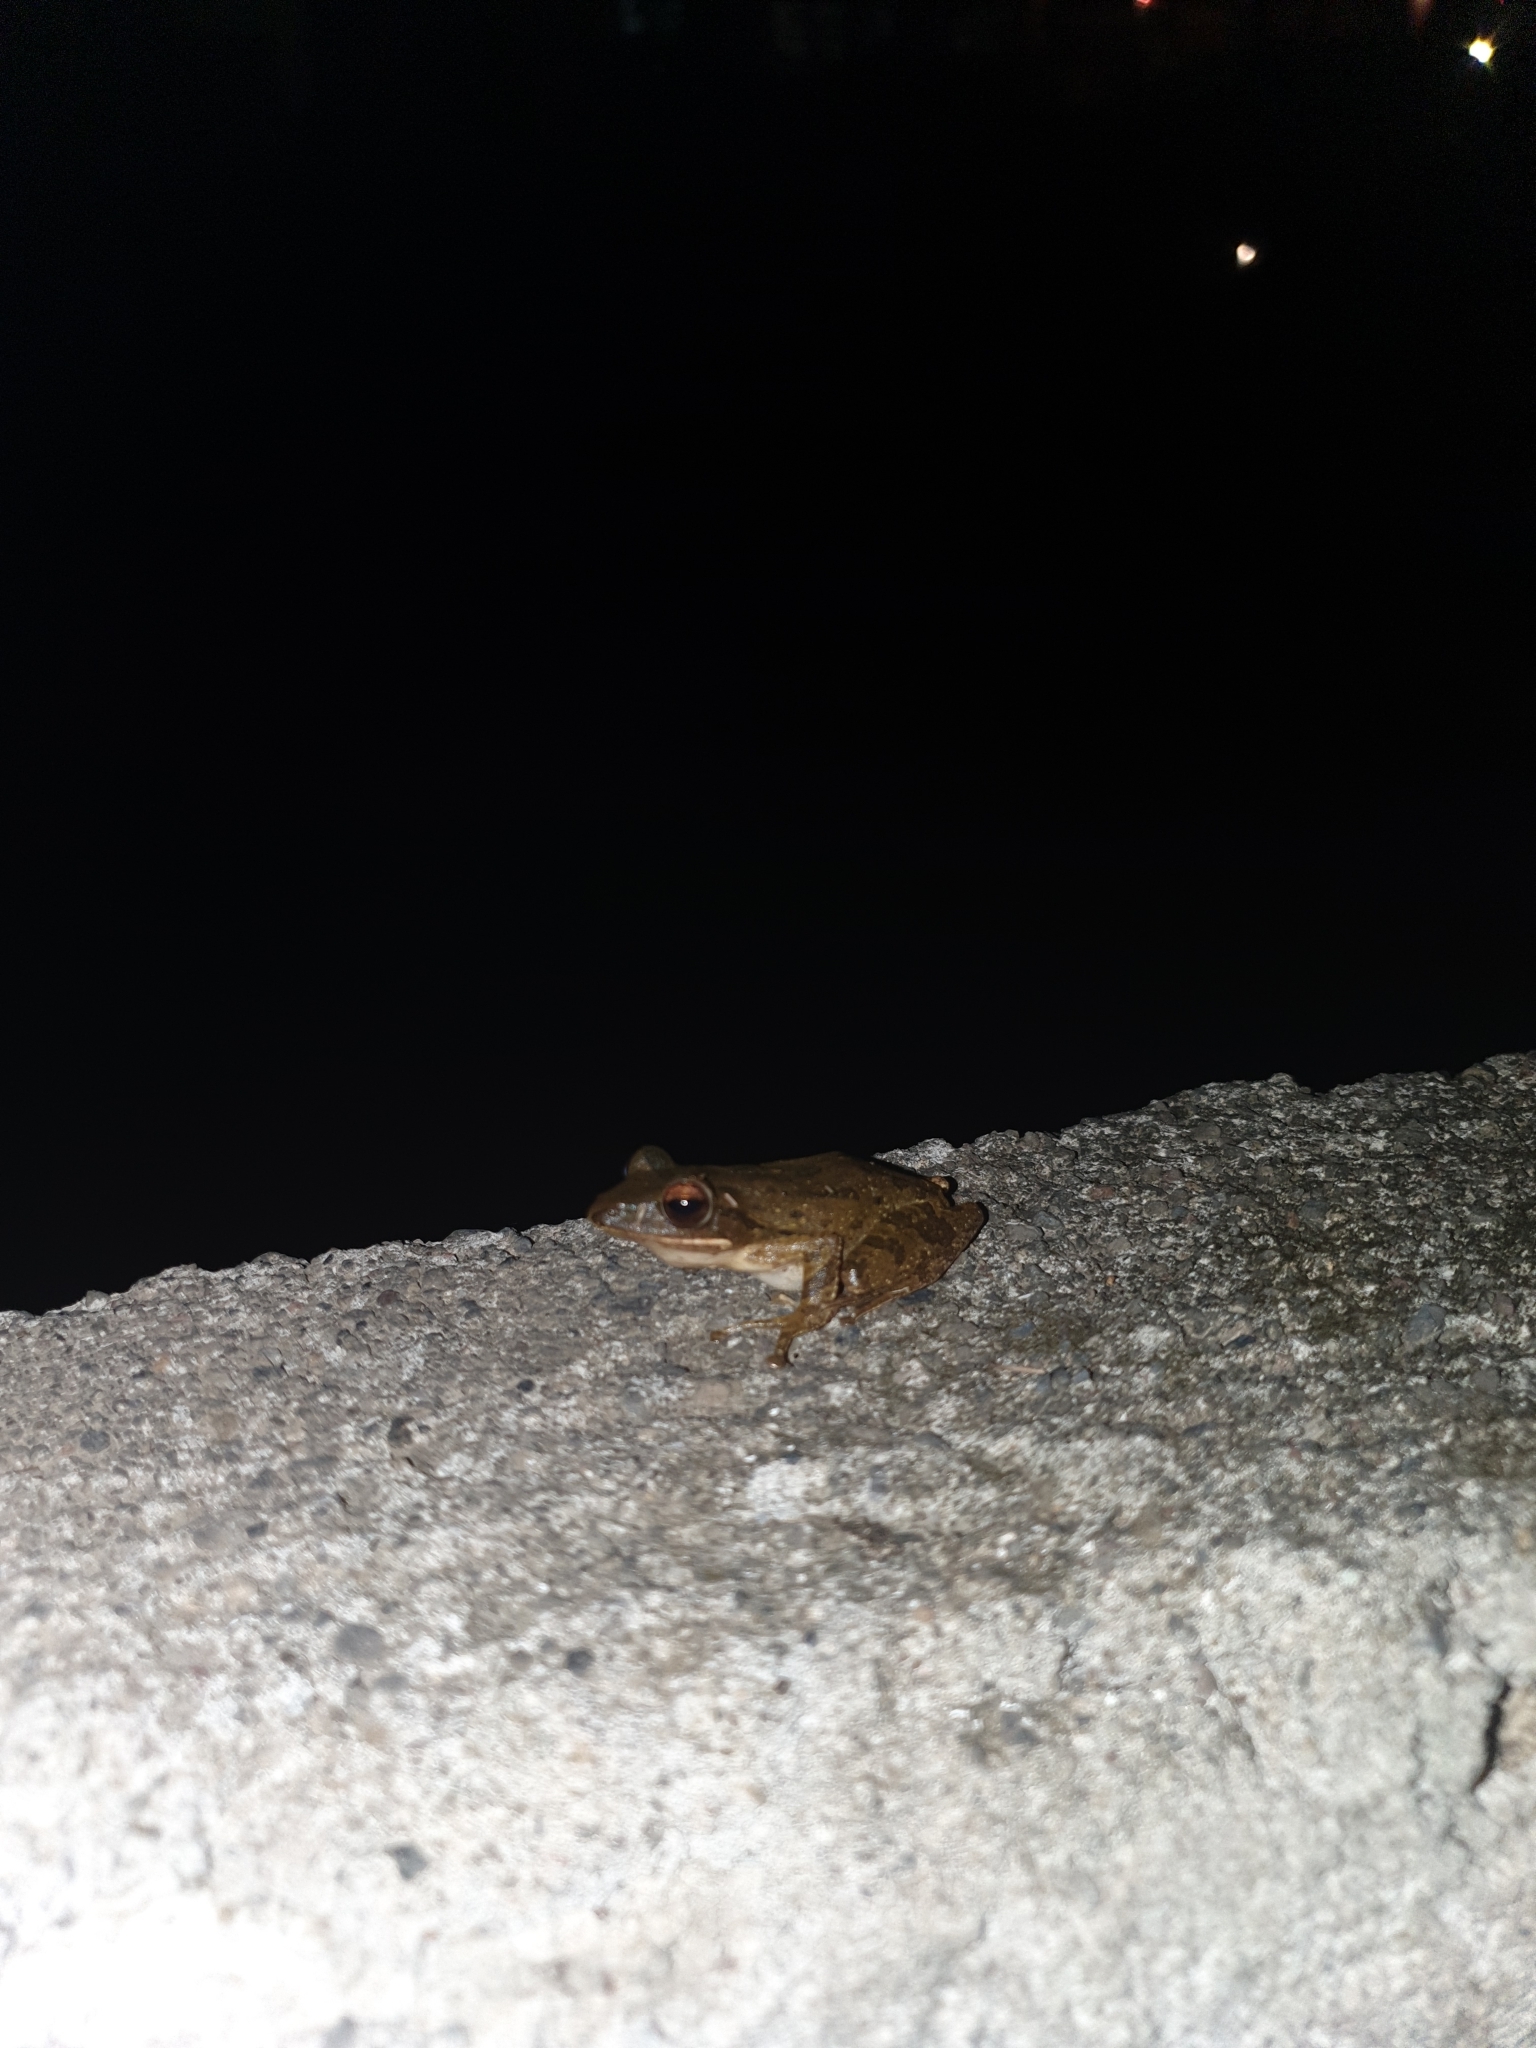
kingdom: Animalia
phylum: Chordata
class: Amphibia
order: Anura
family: Rhacophoridae
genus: Polypedates
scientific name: Polypedates leucomystax
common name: Common tree frog/four-lined tree frog
